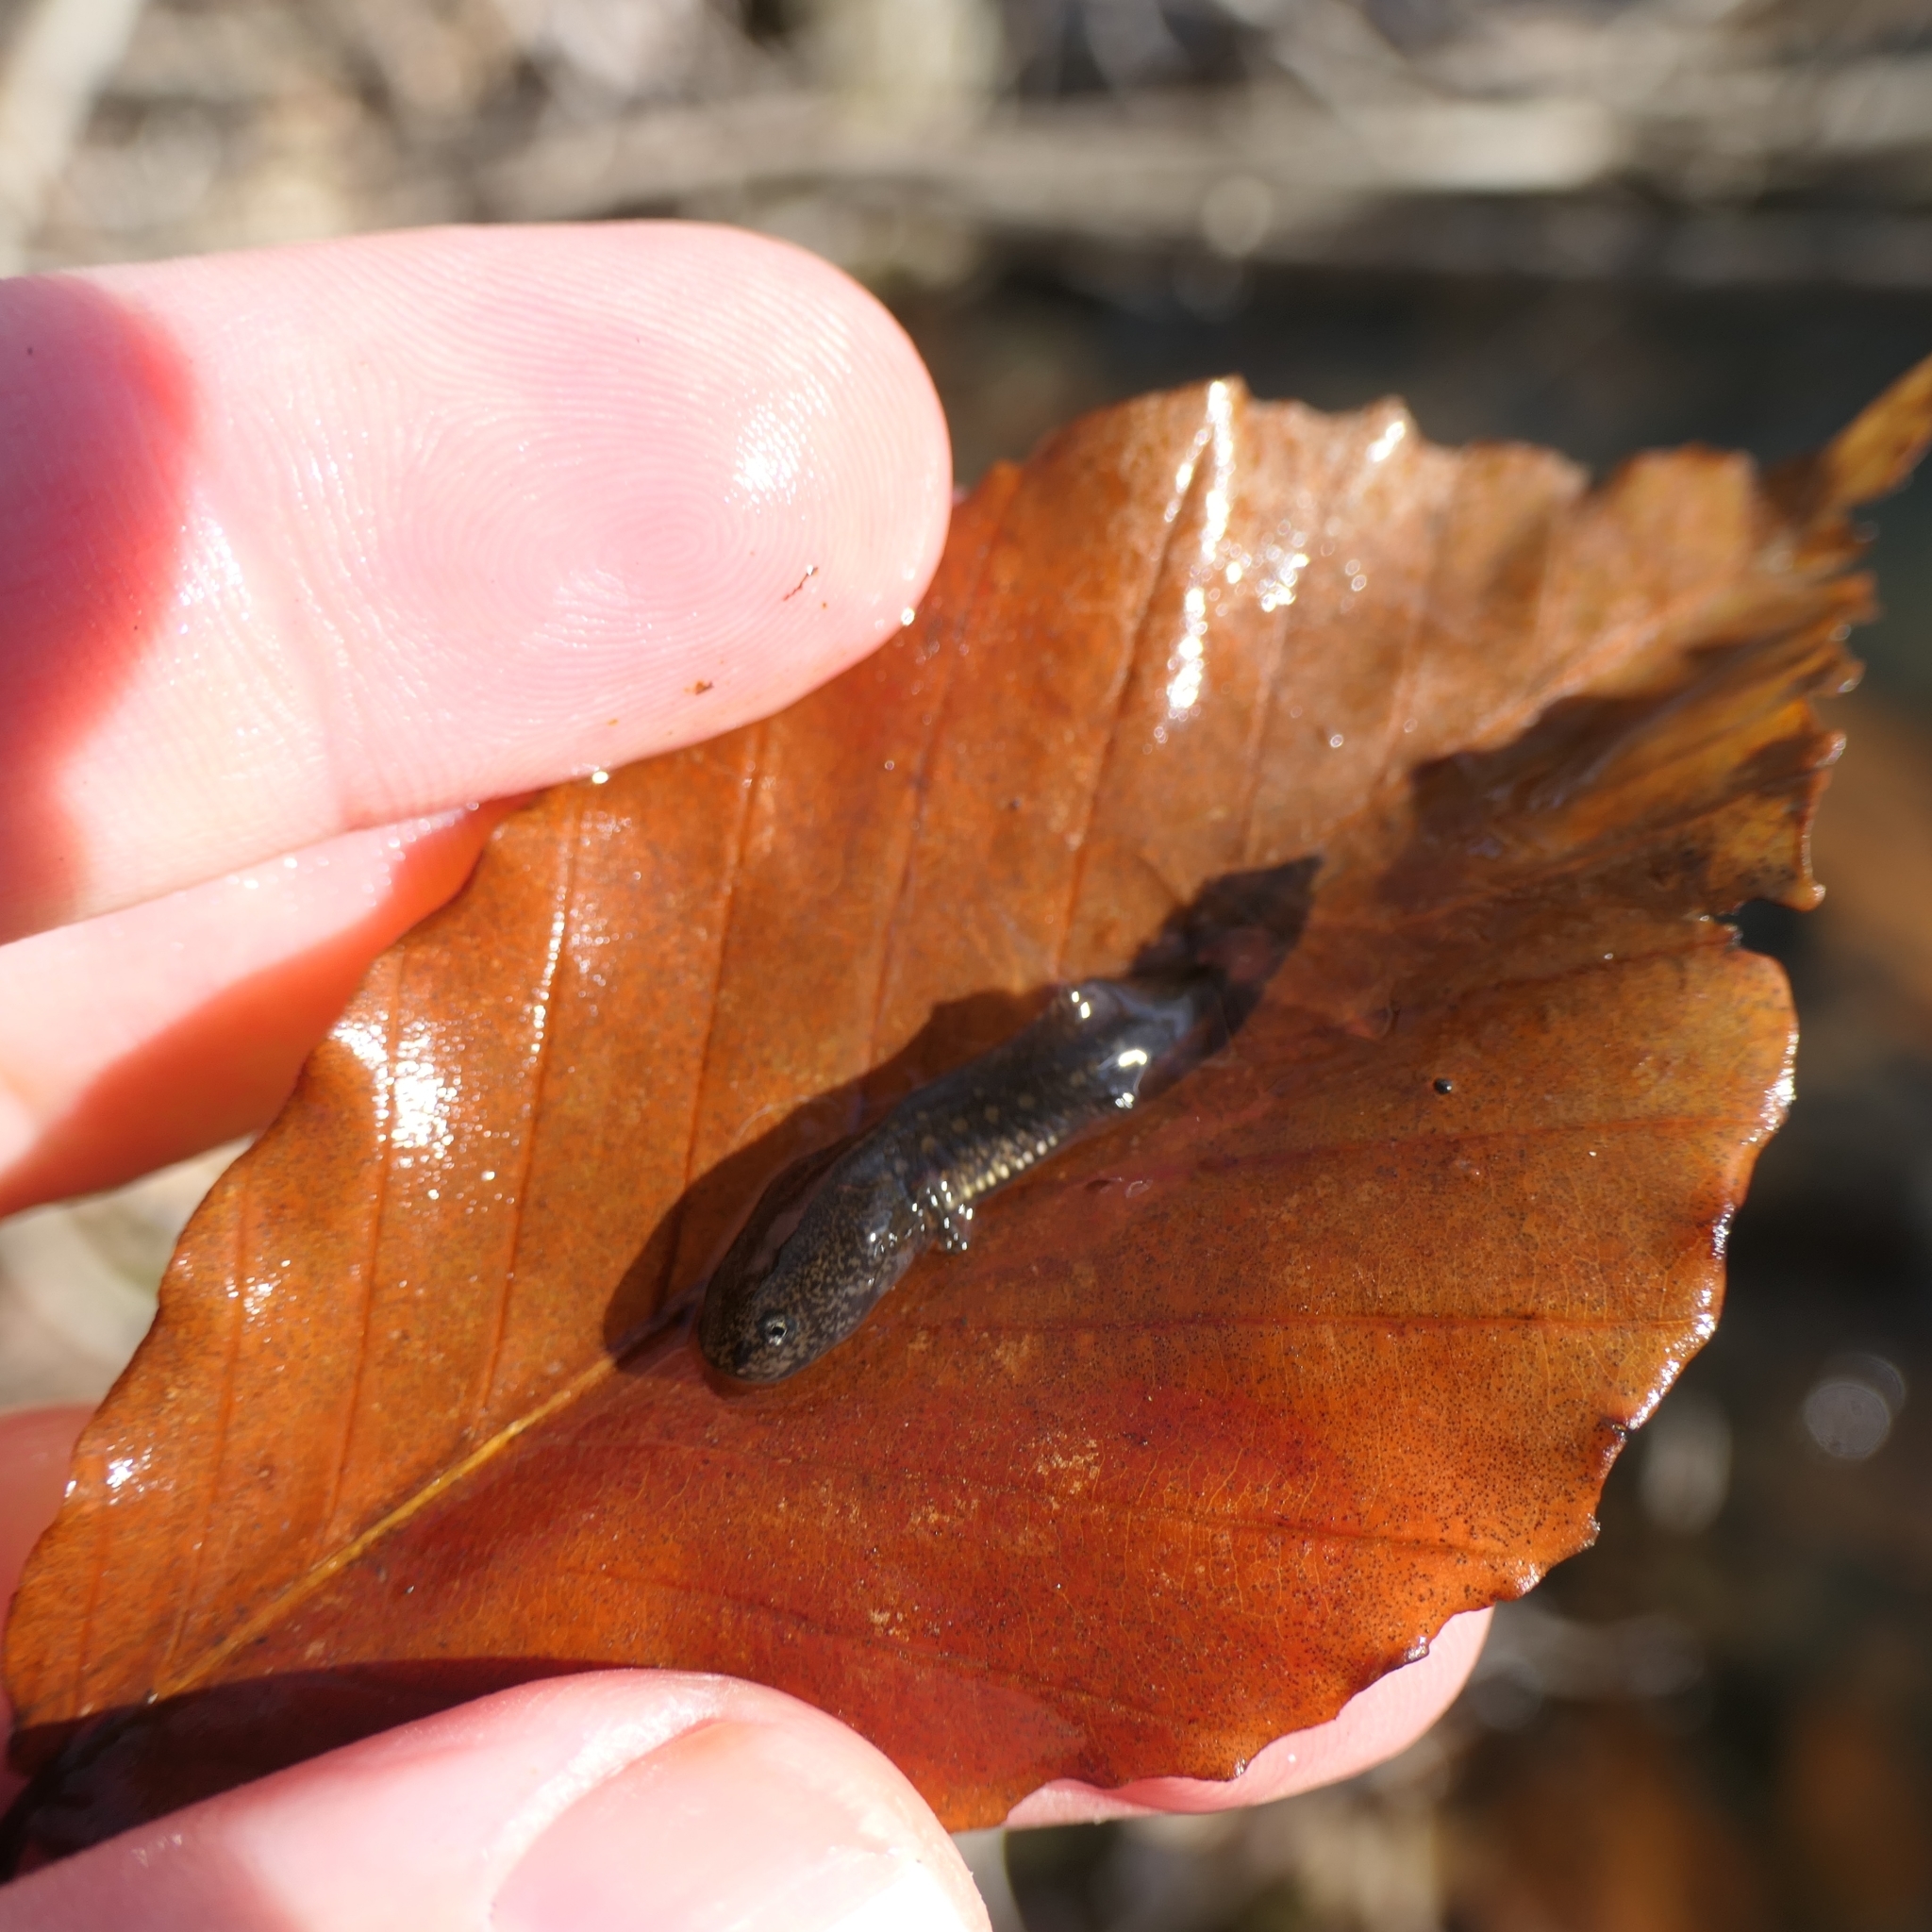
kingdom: Animalia
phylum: Chordata
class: Amphibia
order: Caudata
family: Ambystomatidae
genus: Ambystoma
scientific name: Ambystoma opacum
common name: Marbled salamander
